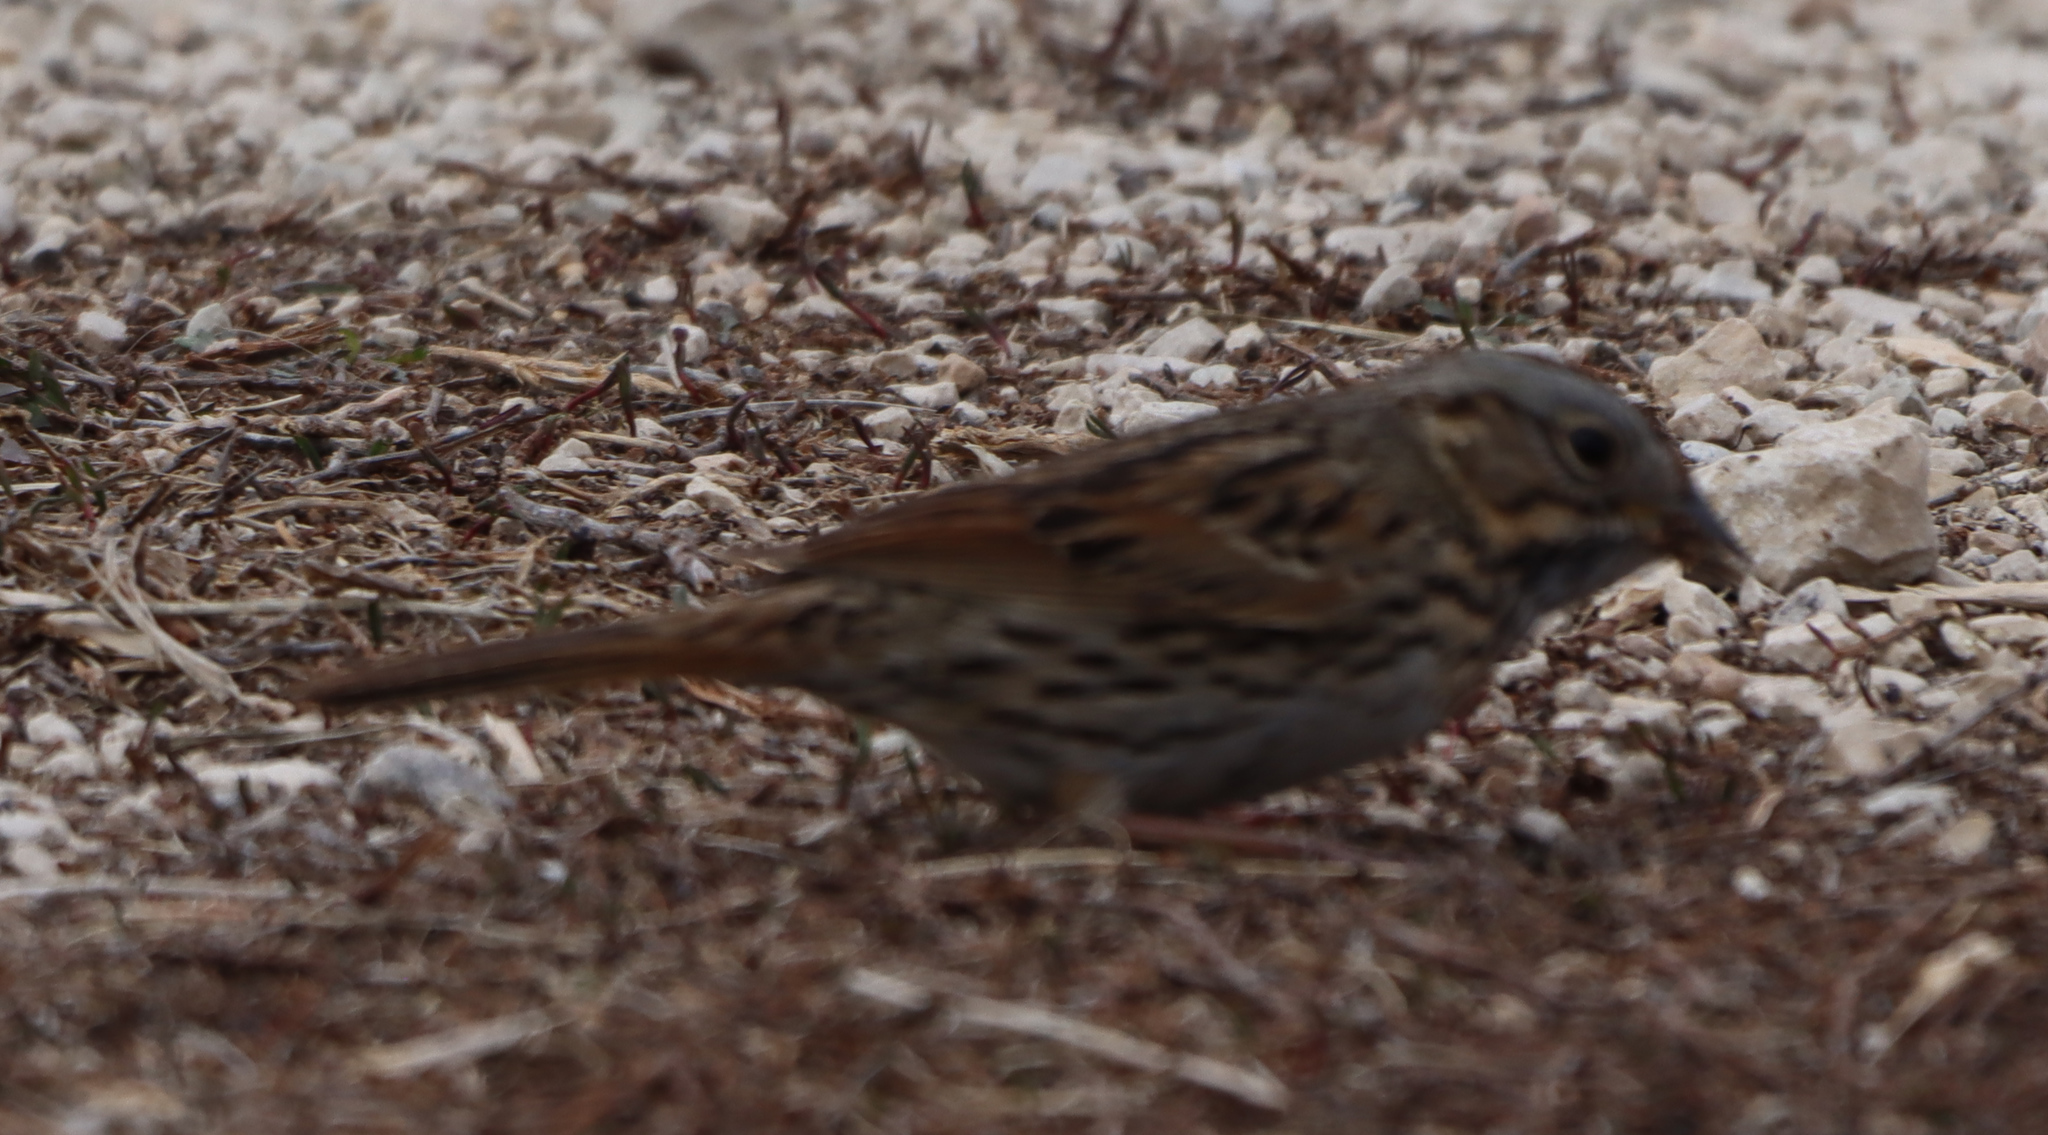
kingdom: Animalia
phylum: Chordata
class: Aves
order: Passeriformes
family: Passerellidae
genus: Melospiza
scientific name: Melospiza lincolnii
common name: Lincoln's sparrow
